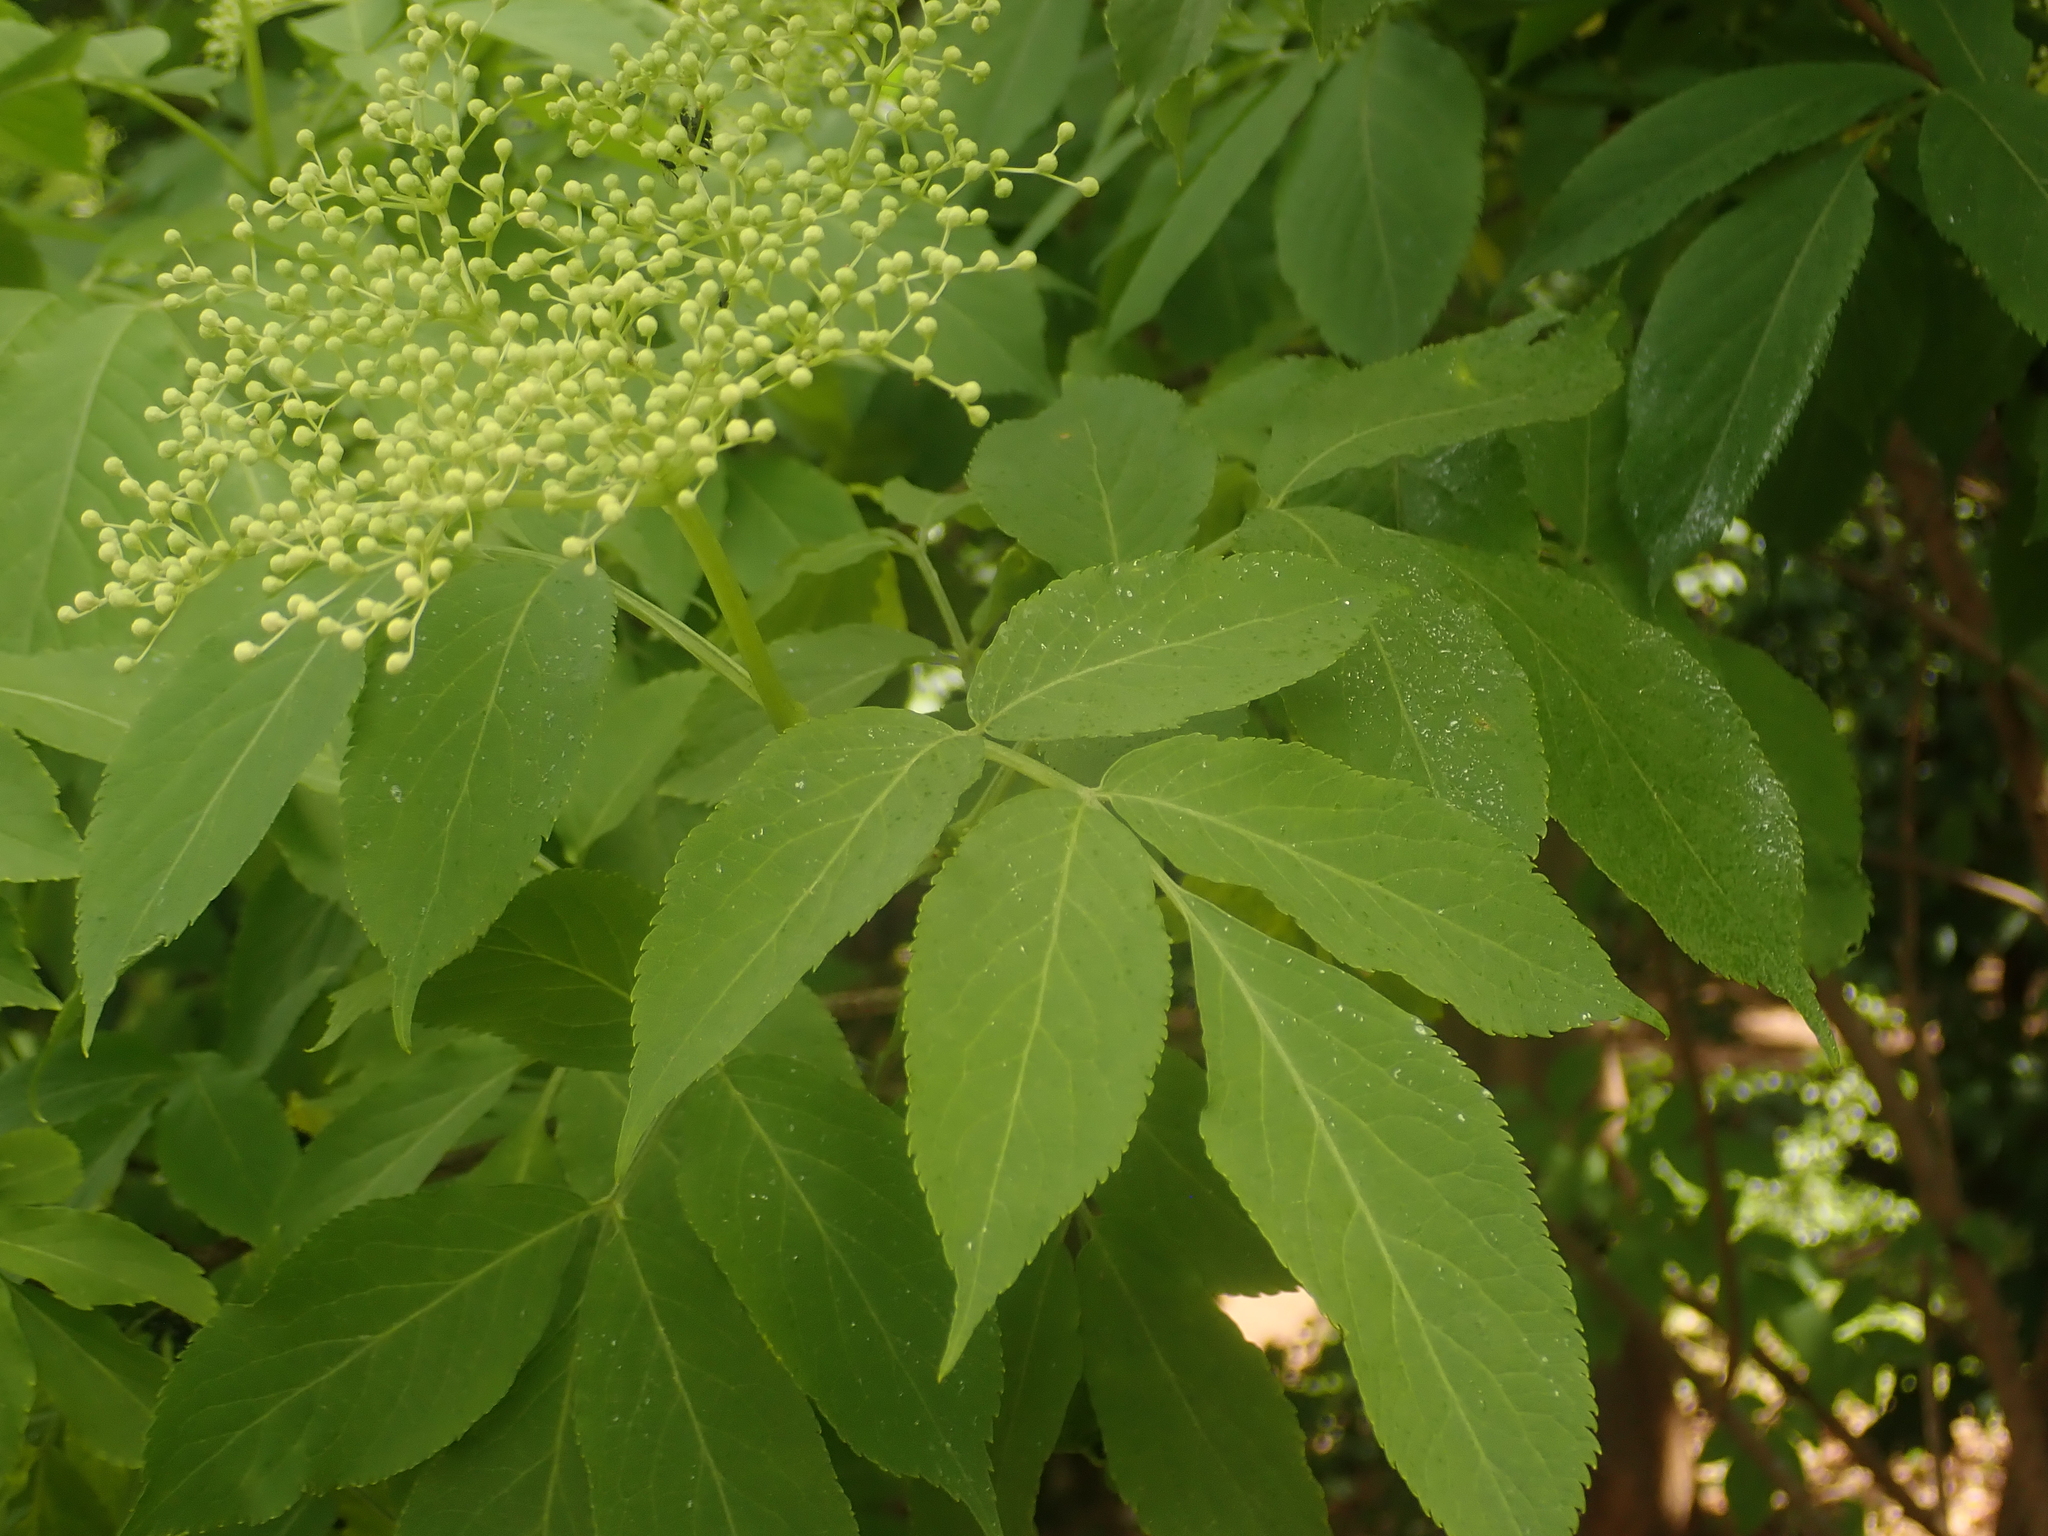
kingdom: Plantae
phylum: Tracheophyta
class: Magnoliopsida
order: Dipsacales
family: Viburnaceae
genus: Sambucus
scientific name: Sambucus nigra
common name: Elder
